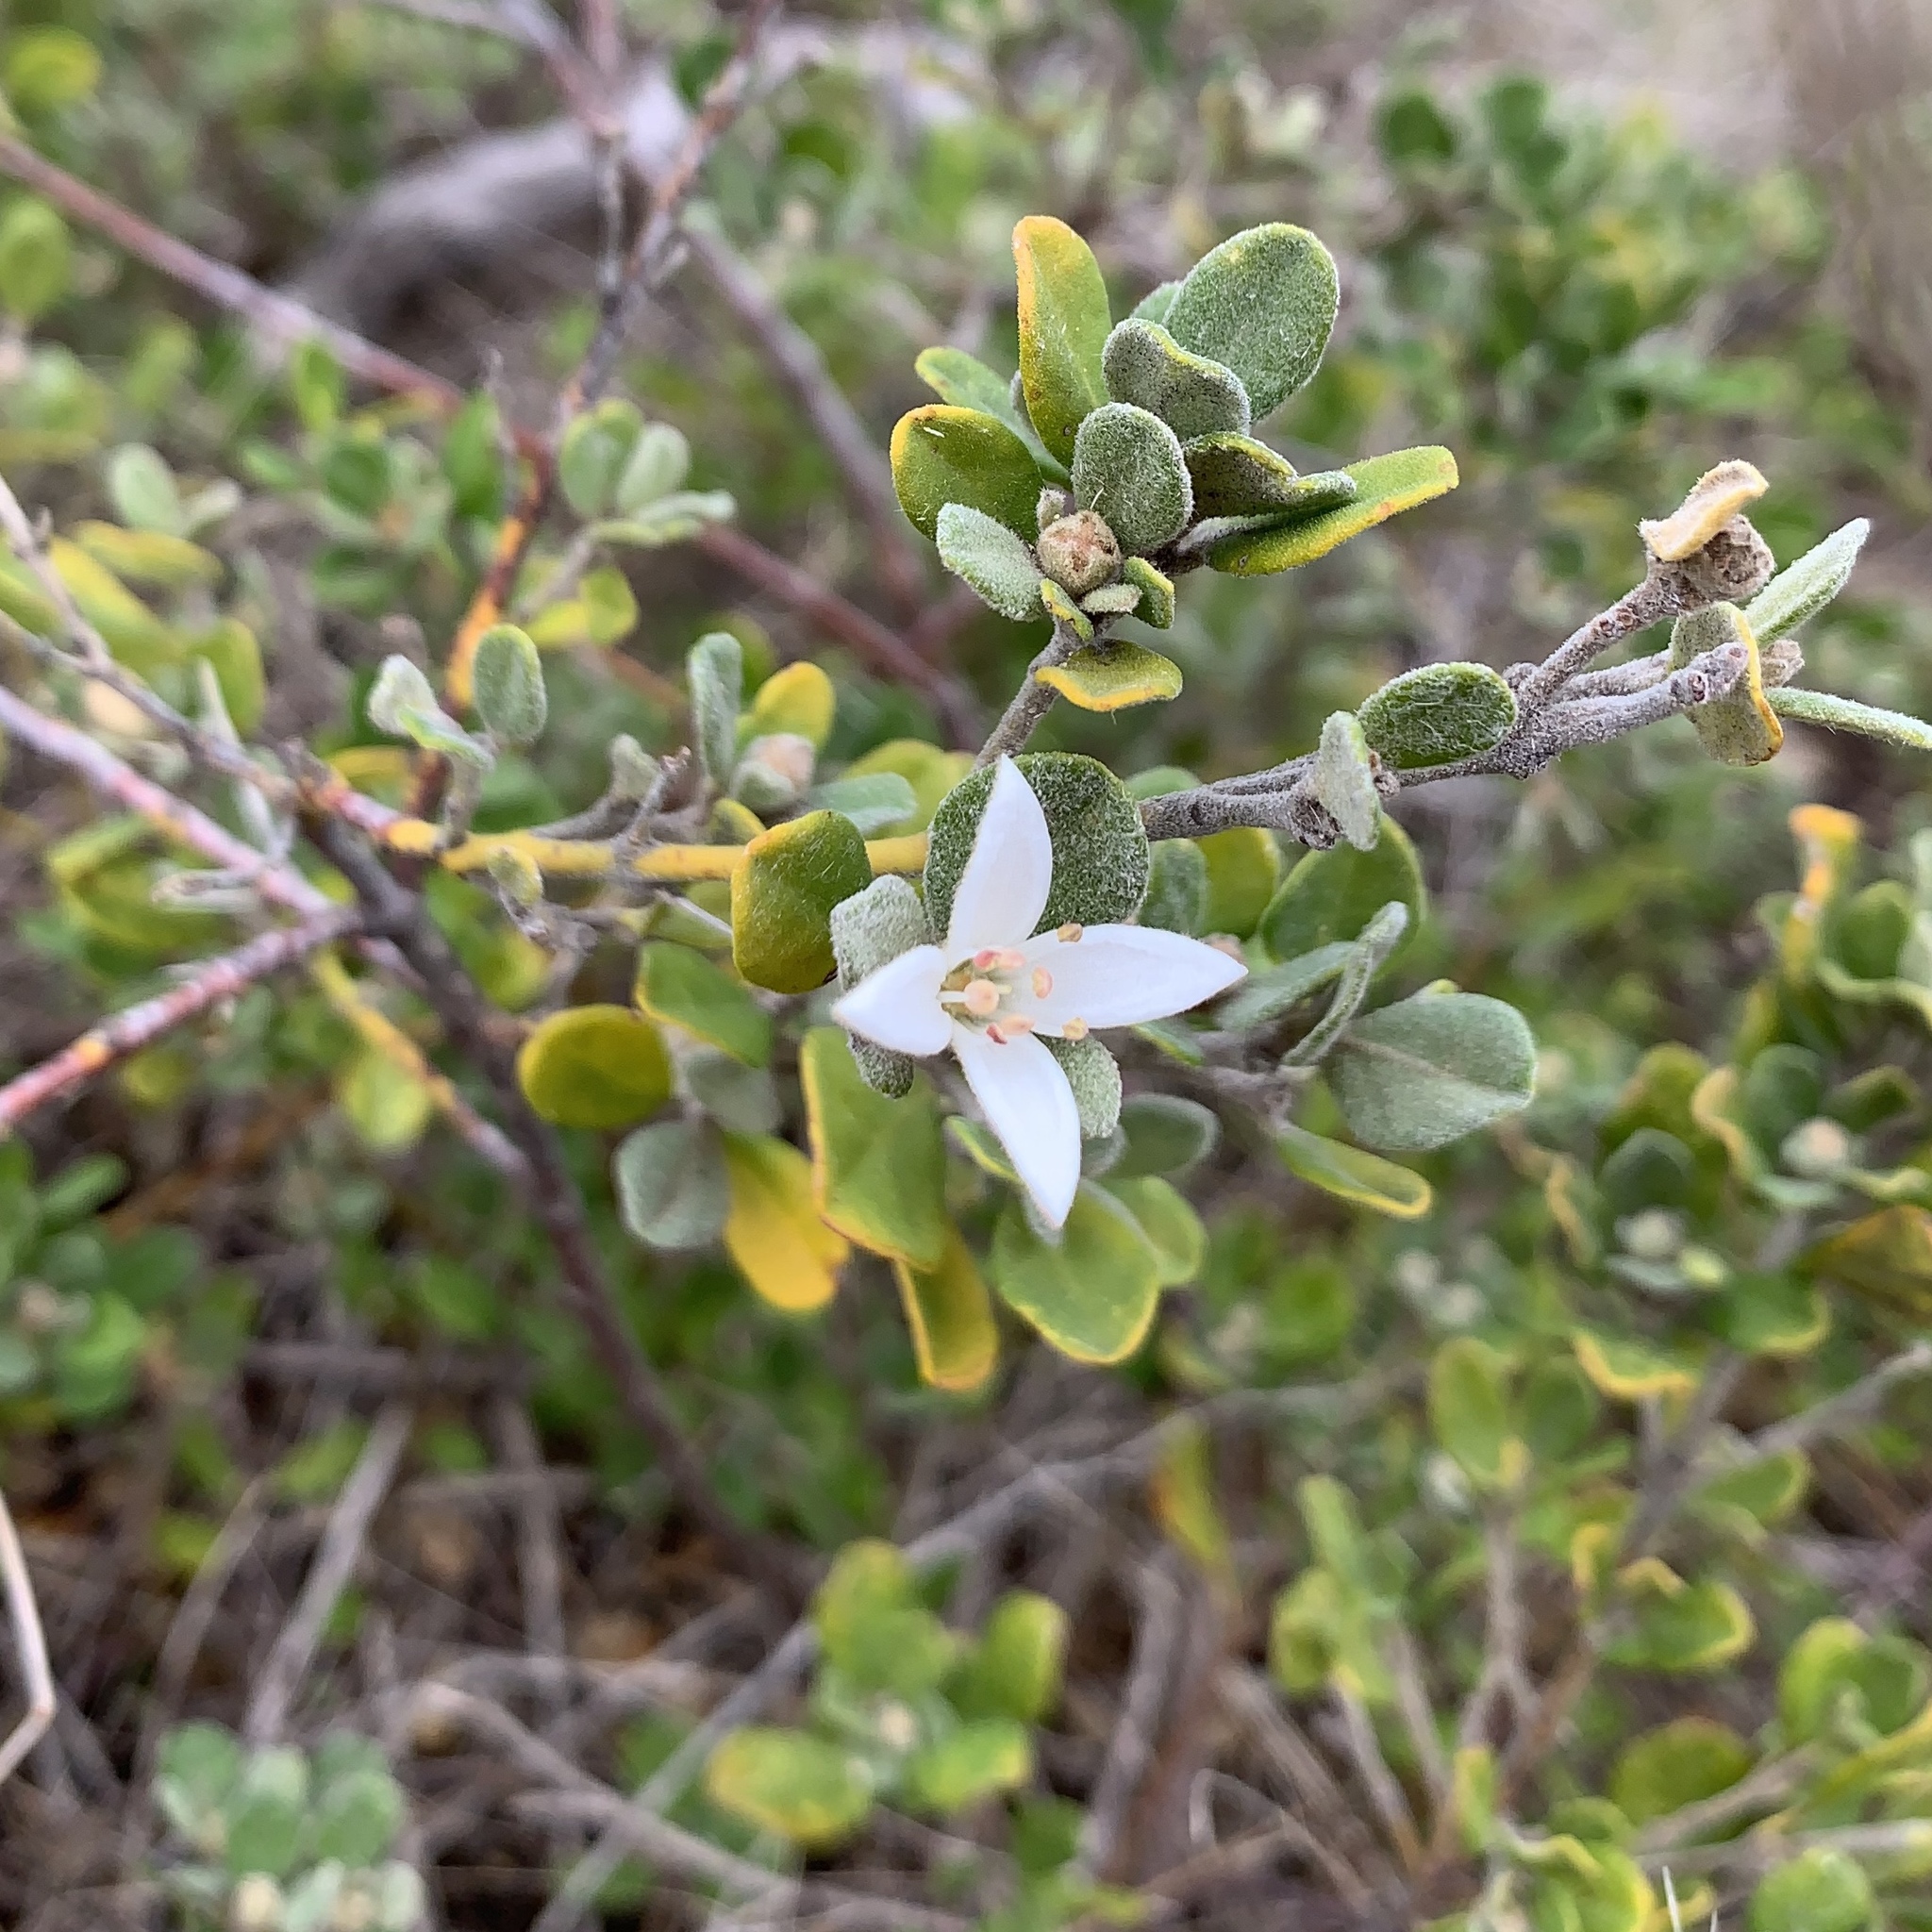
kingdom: Plantae
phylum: Tracheophyta
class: Magnoliopsida
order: Sapindales
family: Rutaceae
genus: Correa
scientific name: Correa alba
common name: White correa
